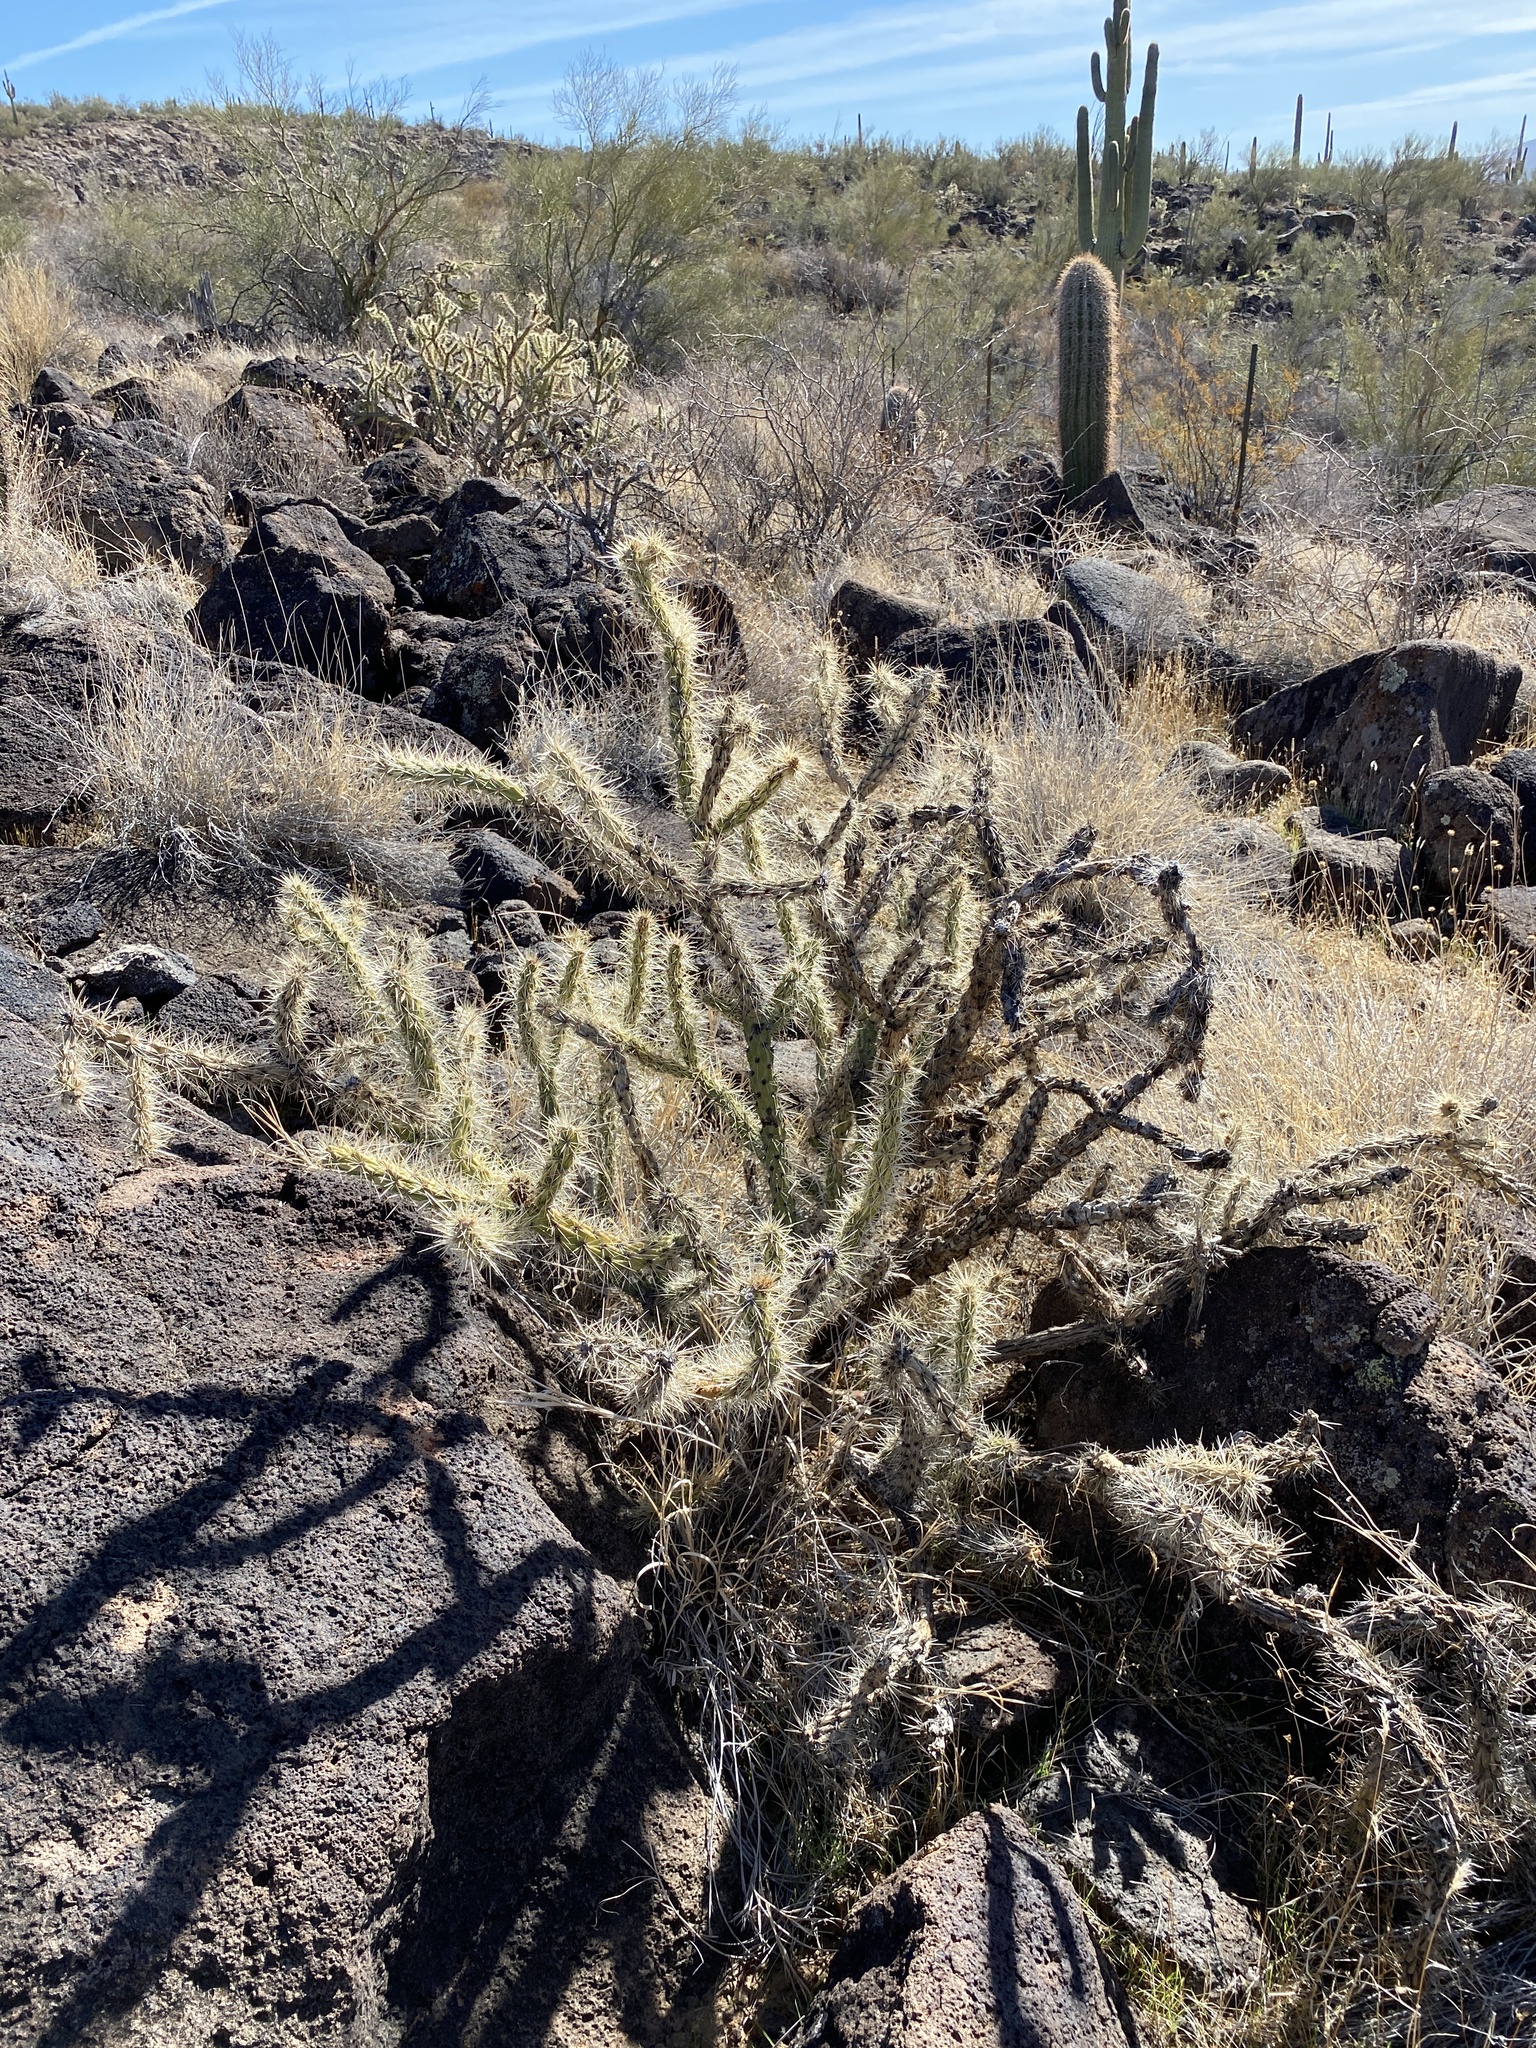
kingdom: Plantae
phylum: Tracheophyta
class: Magnoliopsida
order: Caryophyllales
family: Cactaceae
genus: Cylindropuntia
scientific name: Cylindropuntia acanthocarpa
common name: Buckhorn cholla
